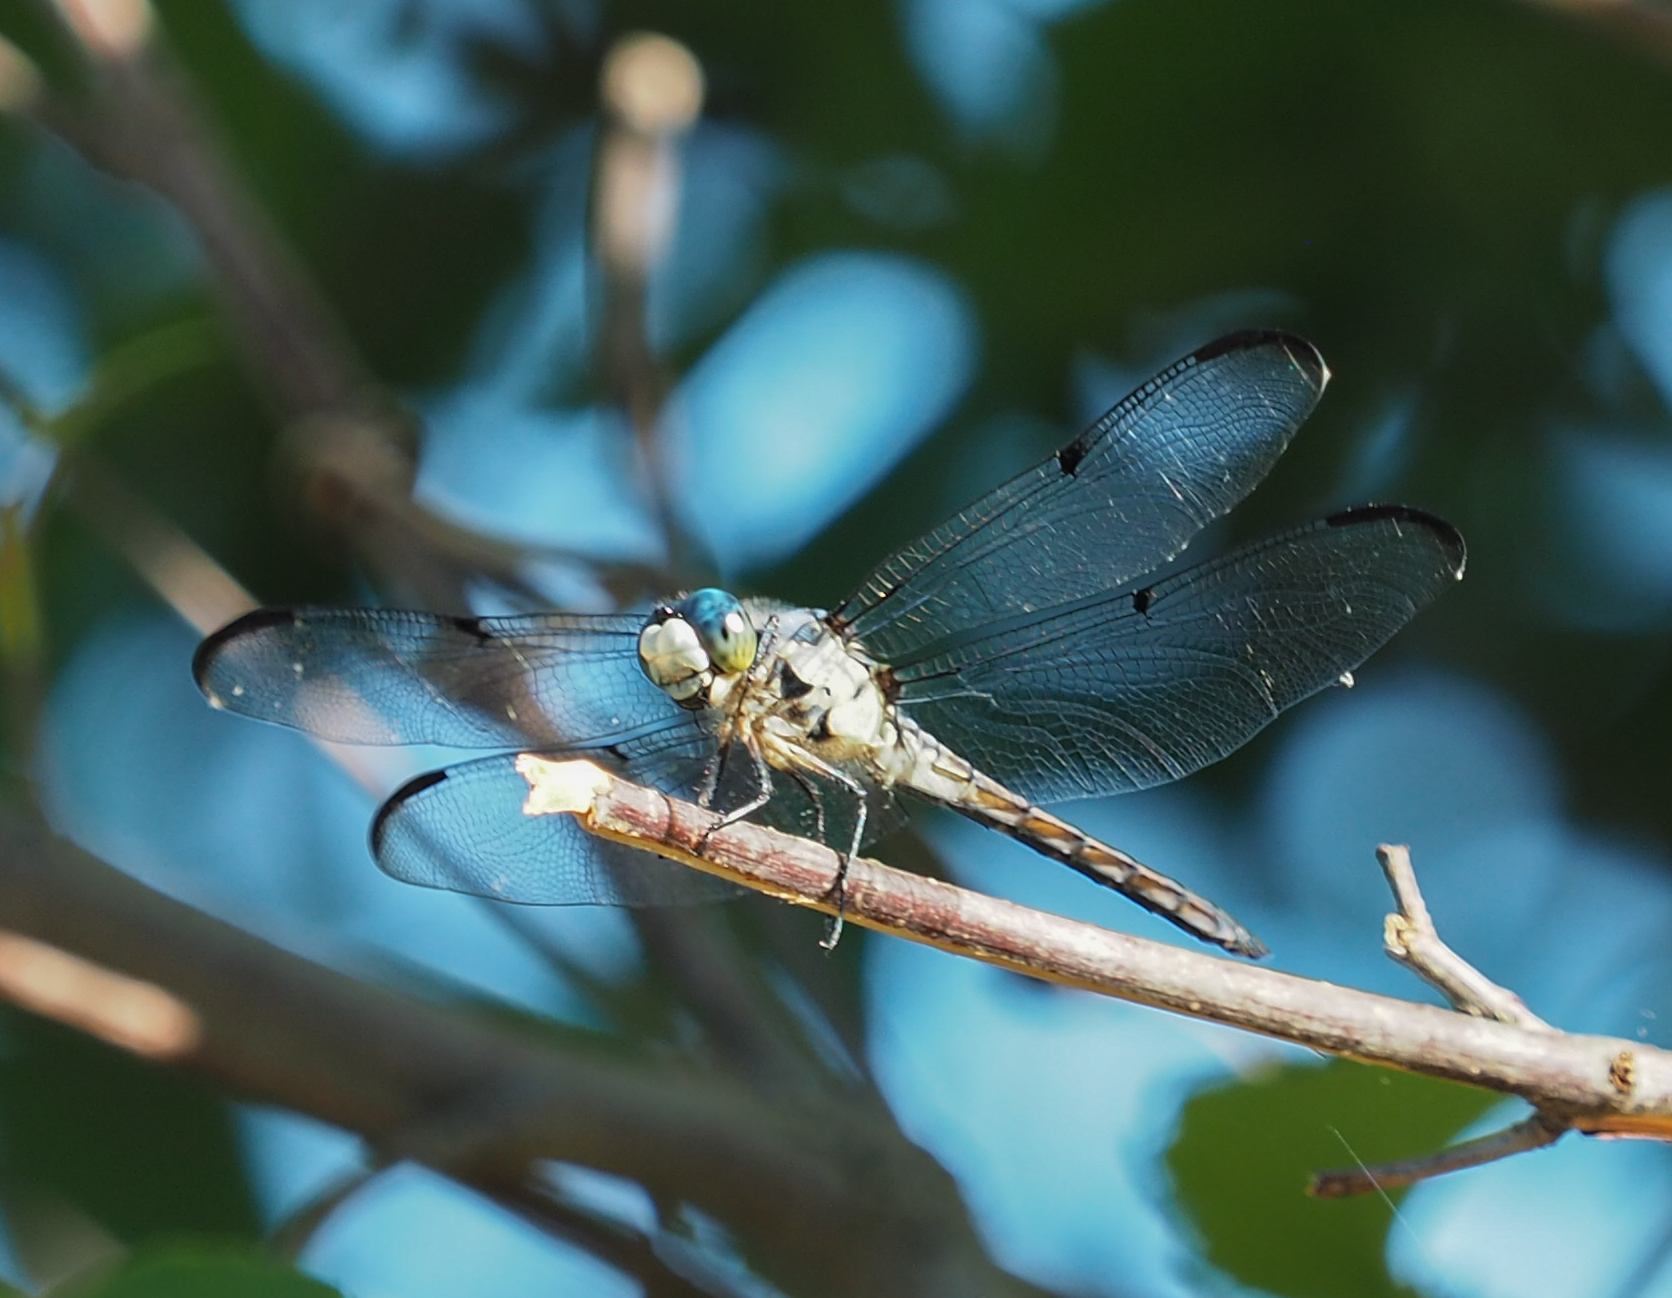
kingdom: Animalia
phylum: Arthropoda
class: Insecta
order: Odonata
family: Libellulidae
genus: Libellula
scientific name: Libellula vibrans
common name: Great blue skimmer
